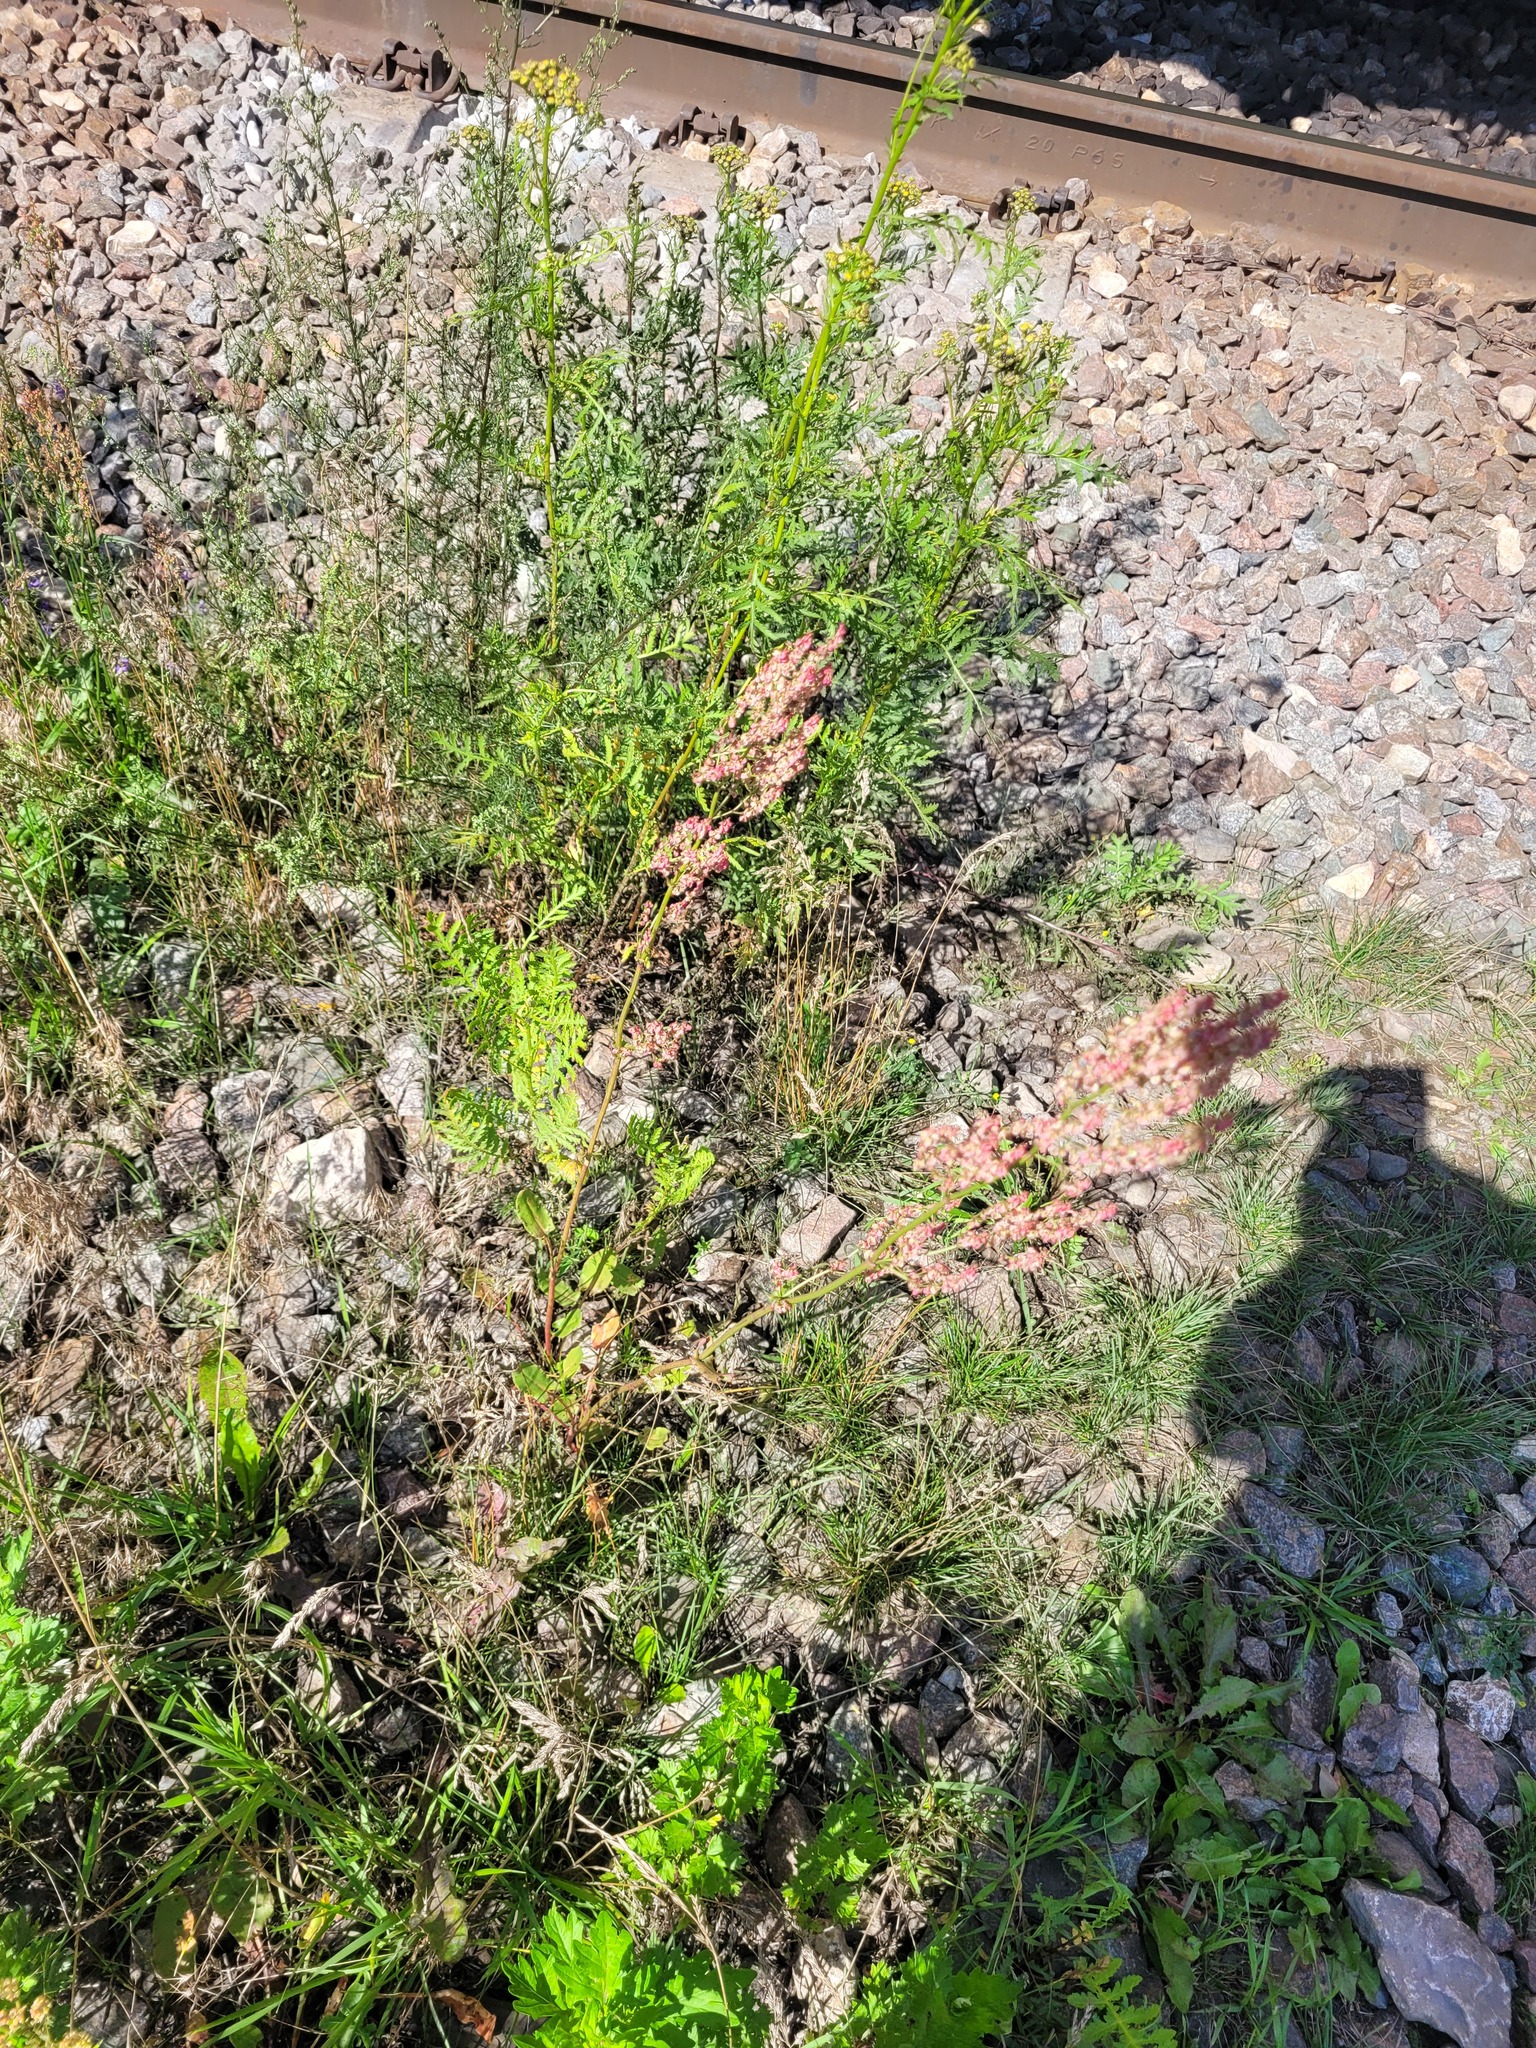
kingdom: Plantae
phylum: Tracheophyta
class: Magnoliopsida
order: Caryophyllales
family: Polygonaceae
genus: Rumex
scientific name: Rumex thyrsiflorus
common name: Garden sorrel
